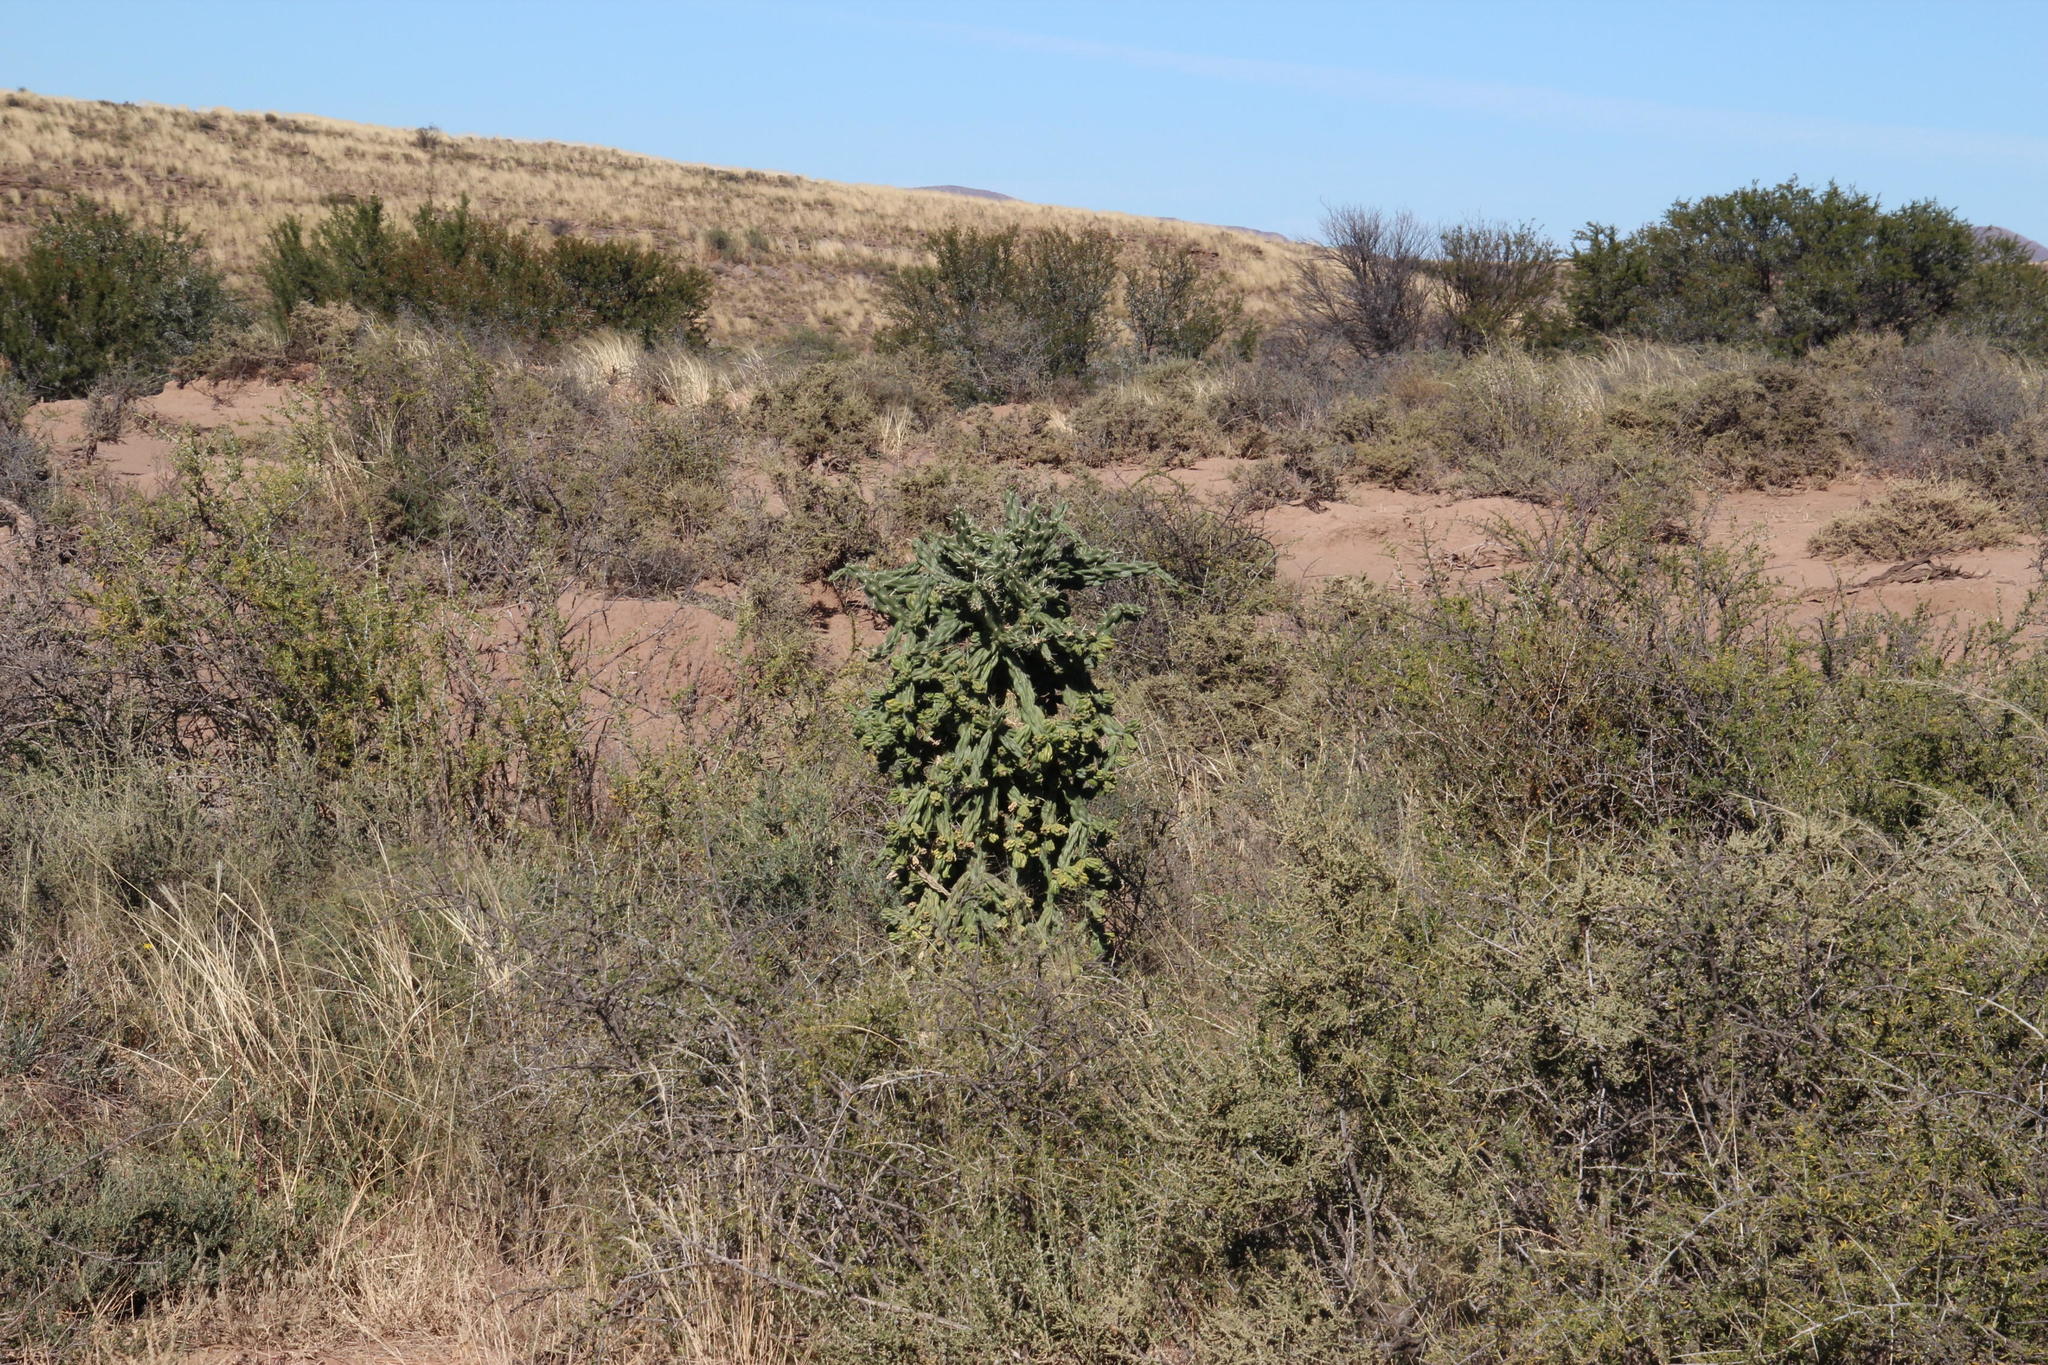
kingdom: Plantae
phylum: Tracheophyta
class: Magnoliopsida
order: Caryophyllales
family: Cactaceae
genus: Cylindropuntia
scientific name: Cylindropuntia imbricata
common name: Candelabrum cactus
